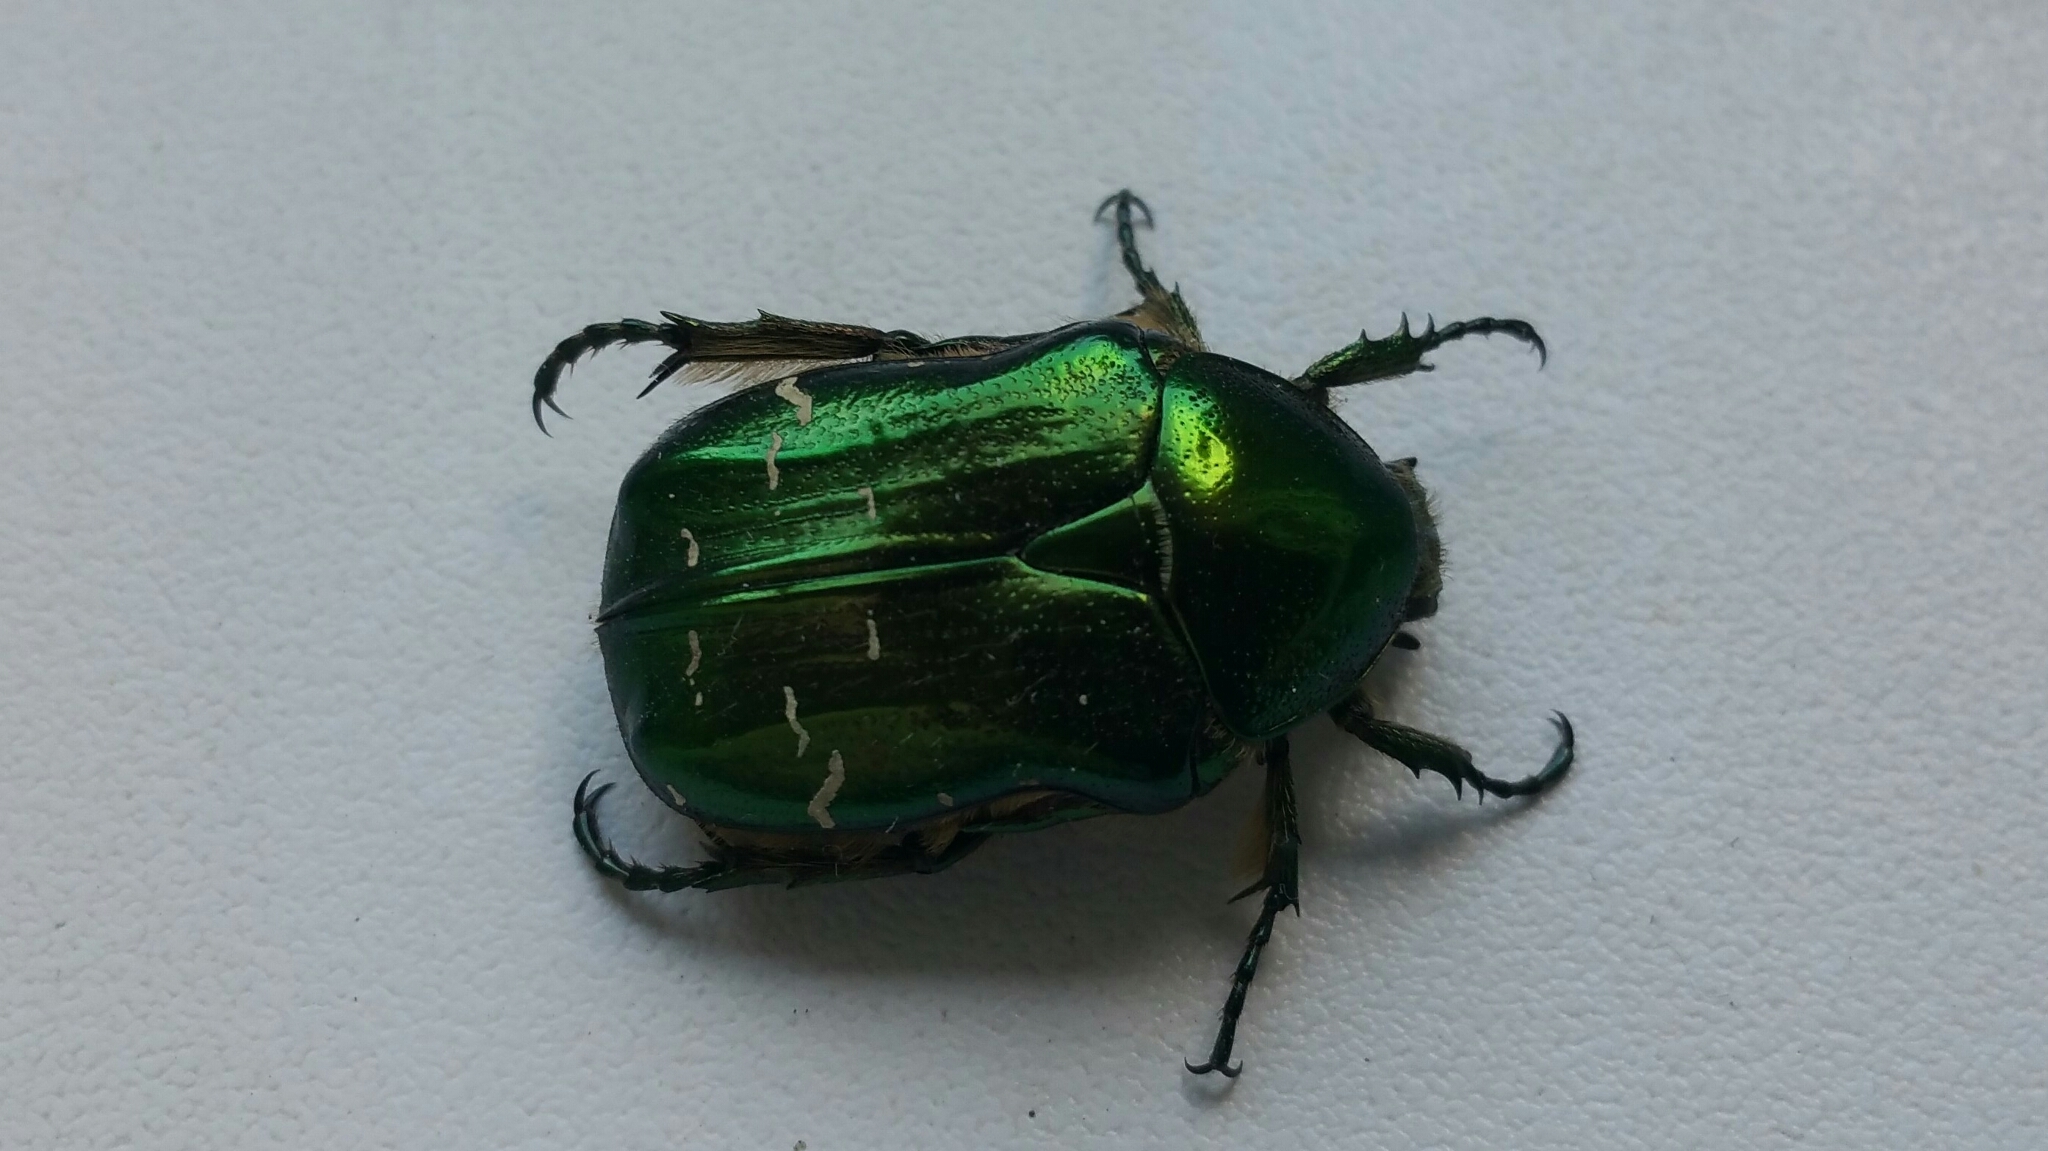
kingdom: Animalia
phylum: Arthropoda
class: Insecta
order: Coleoptera
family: Scarabaeidae
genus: Cetonia
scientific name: Cetonia aurata
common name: Rose chafer
